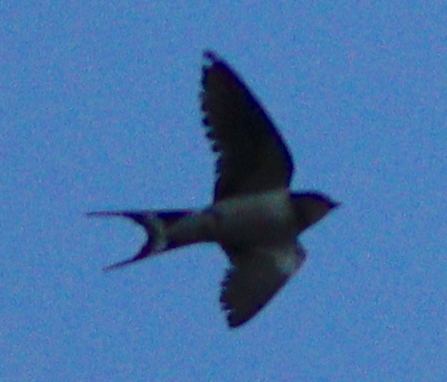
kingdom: Animalia
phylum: Chordata
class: Aves
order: Passeriformes
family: Hirundinidae
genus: Hirundo
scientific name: Hirundo rustica
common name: Barn swallow
